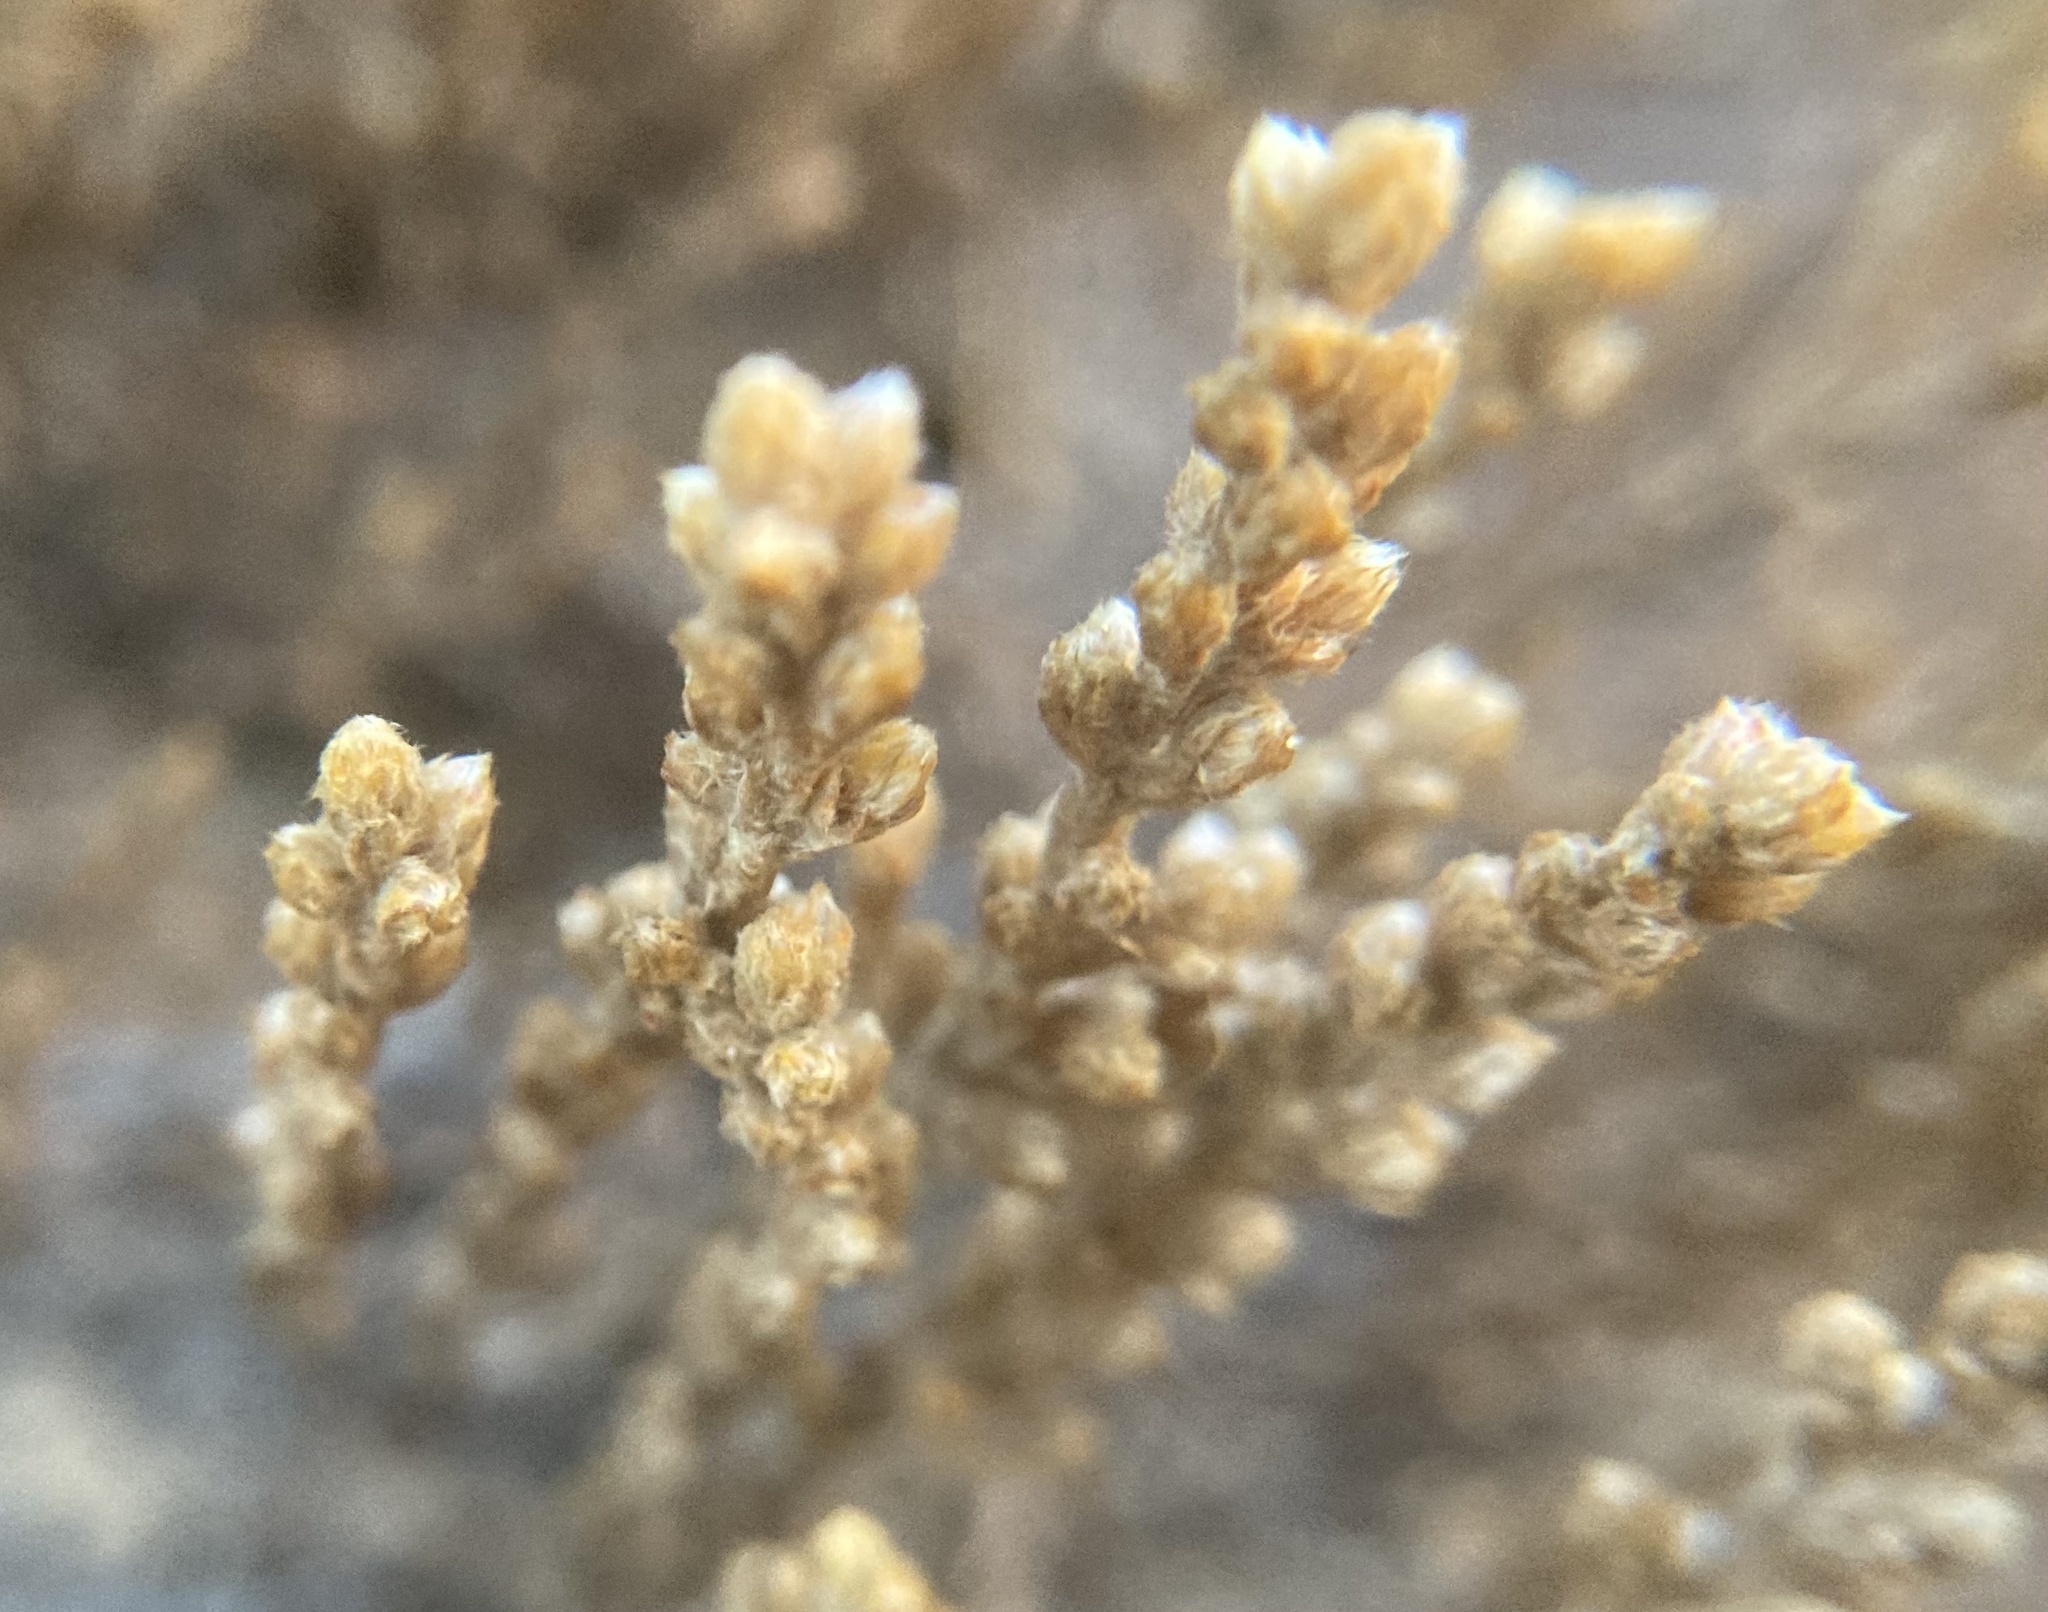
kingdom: Plantae
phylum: Tracheophyta
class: Magnoliopsida
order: Malvales
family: Cistaceae
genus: Hudsonia
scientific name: Hudsonia tomentosa
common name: Beach-heath
